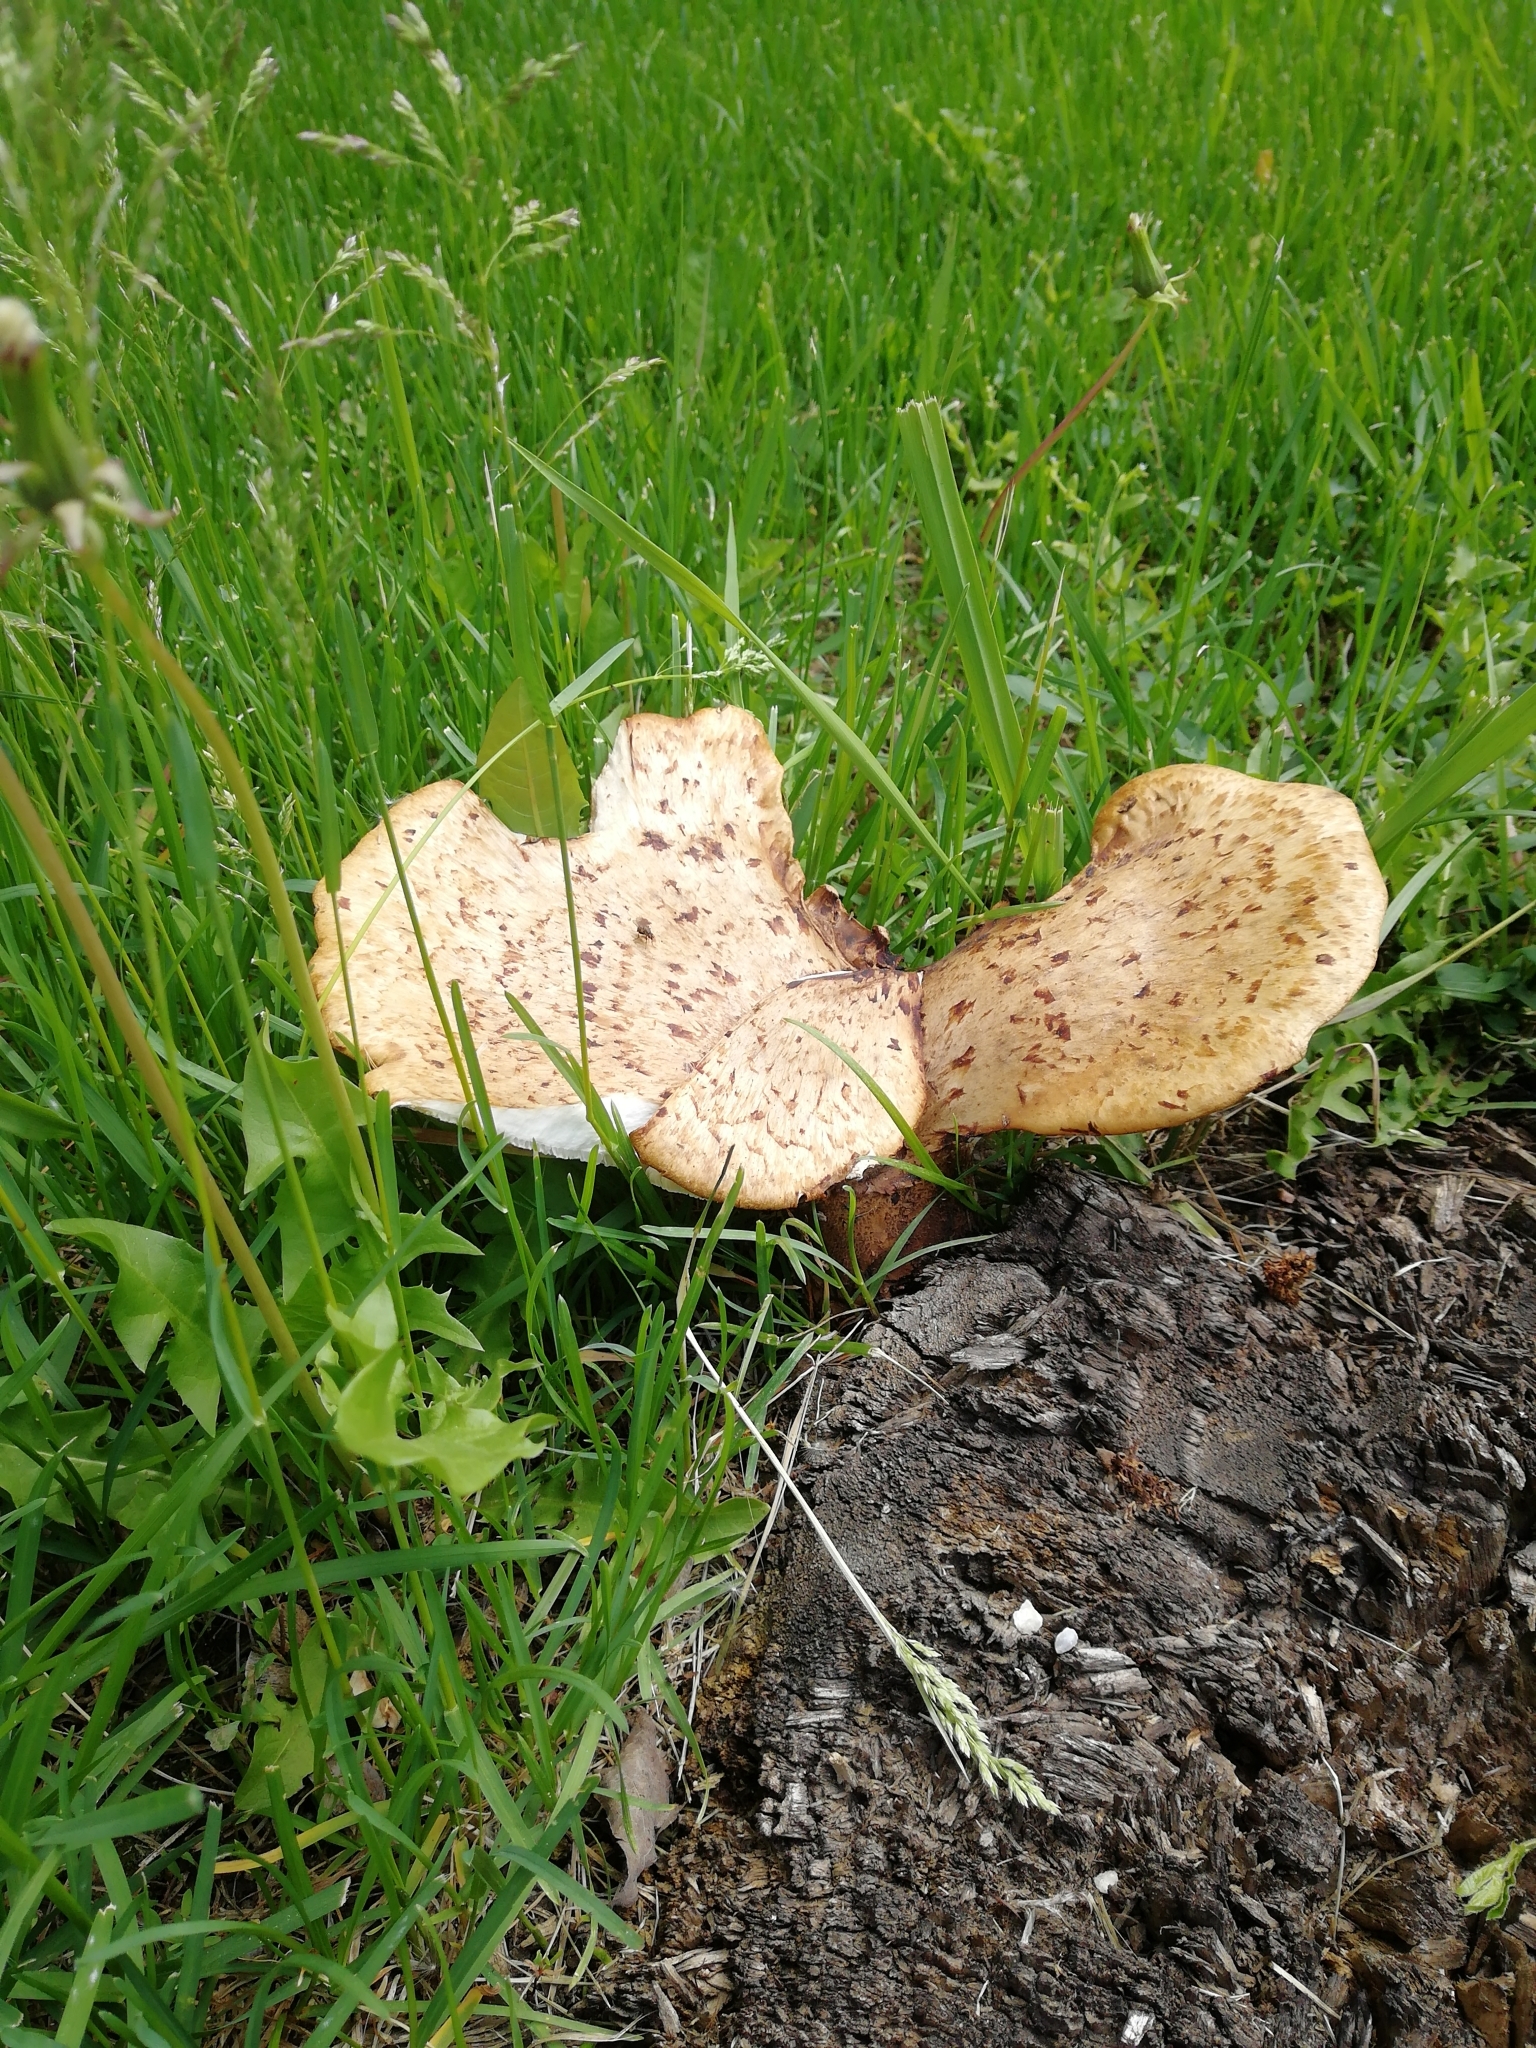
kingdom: Fungi
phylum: Basidiomycota
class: Agaricomycetes
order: Polyporales
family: Polyporaceae
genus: Cerioporus
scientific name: Cerioporus squamosus
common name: Dryad's saddle
